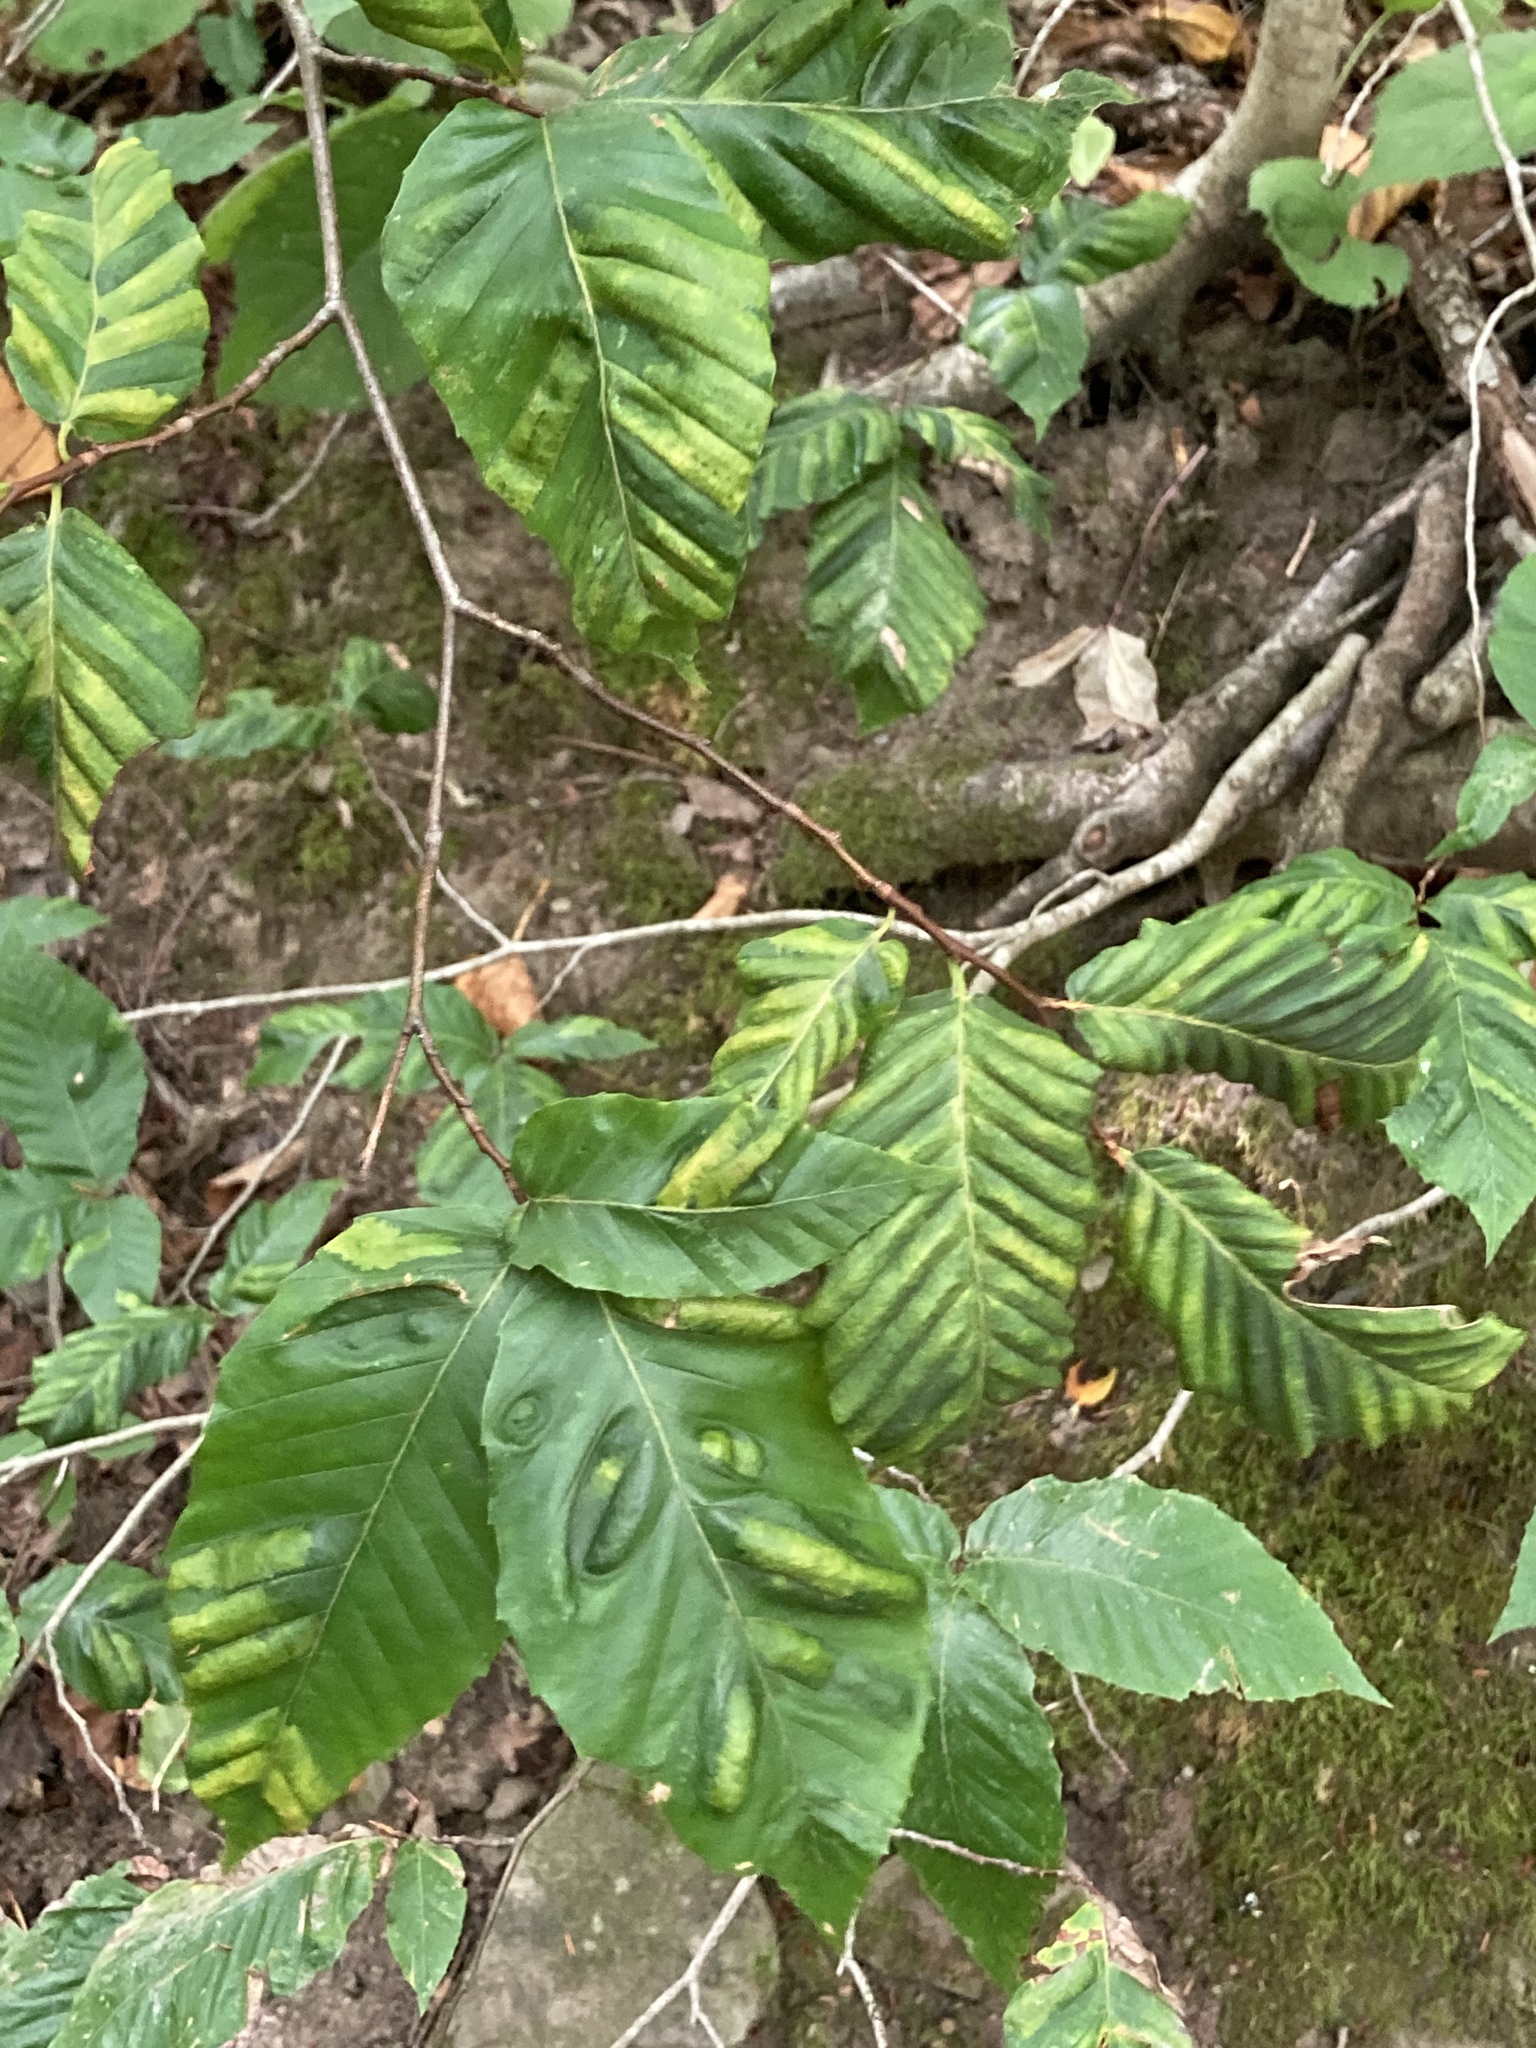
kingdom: Plantae
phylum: Tracheophyta
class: Magnoliopsida
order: Fagales
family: Fagaceae
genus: Fagus
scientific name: Fagus grandifolia
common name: American beech
